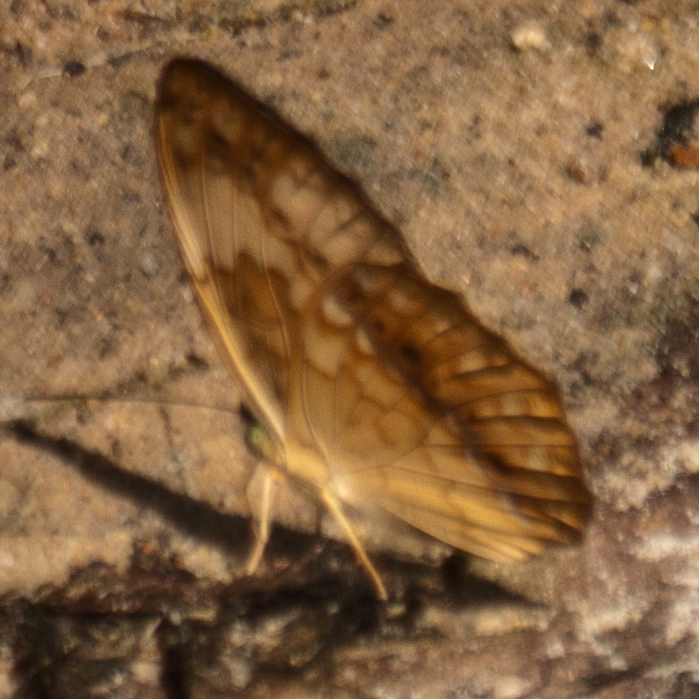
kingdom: Animalia
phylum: Arthropoda
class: Insecta
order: Lepidoptera
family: Nymphalidae
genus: Cupha
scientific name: Cupha erymanthis
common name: Rustic
